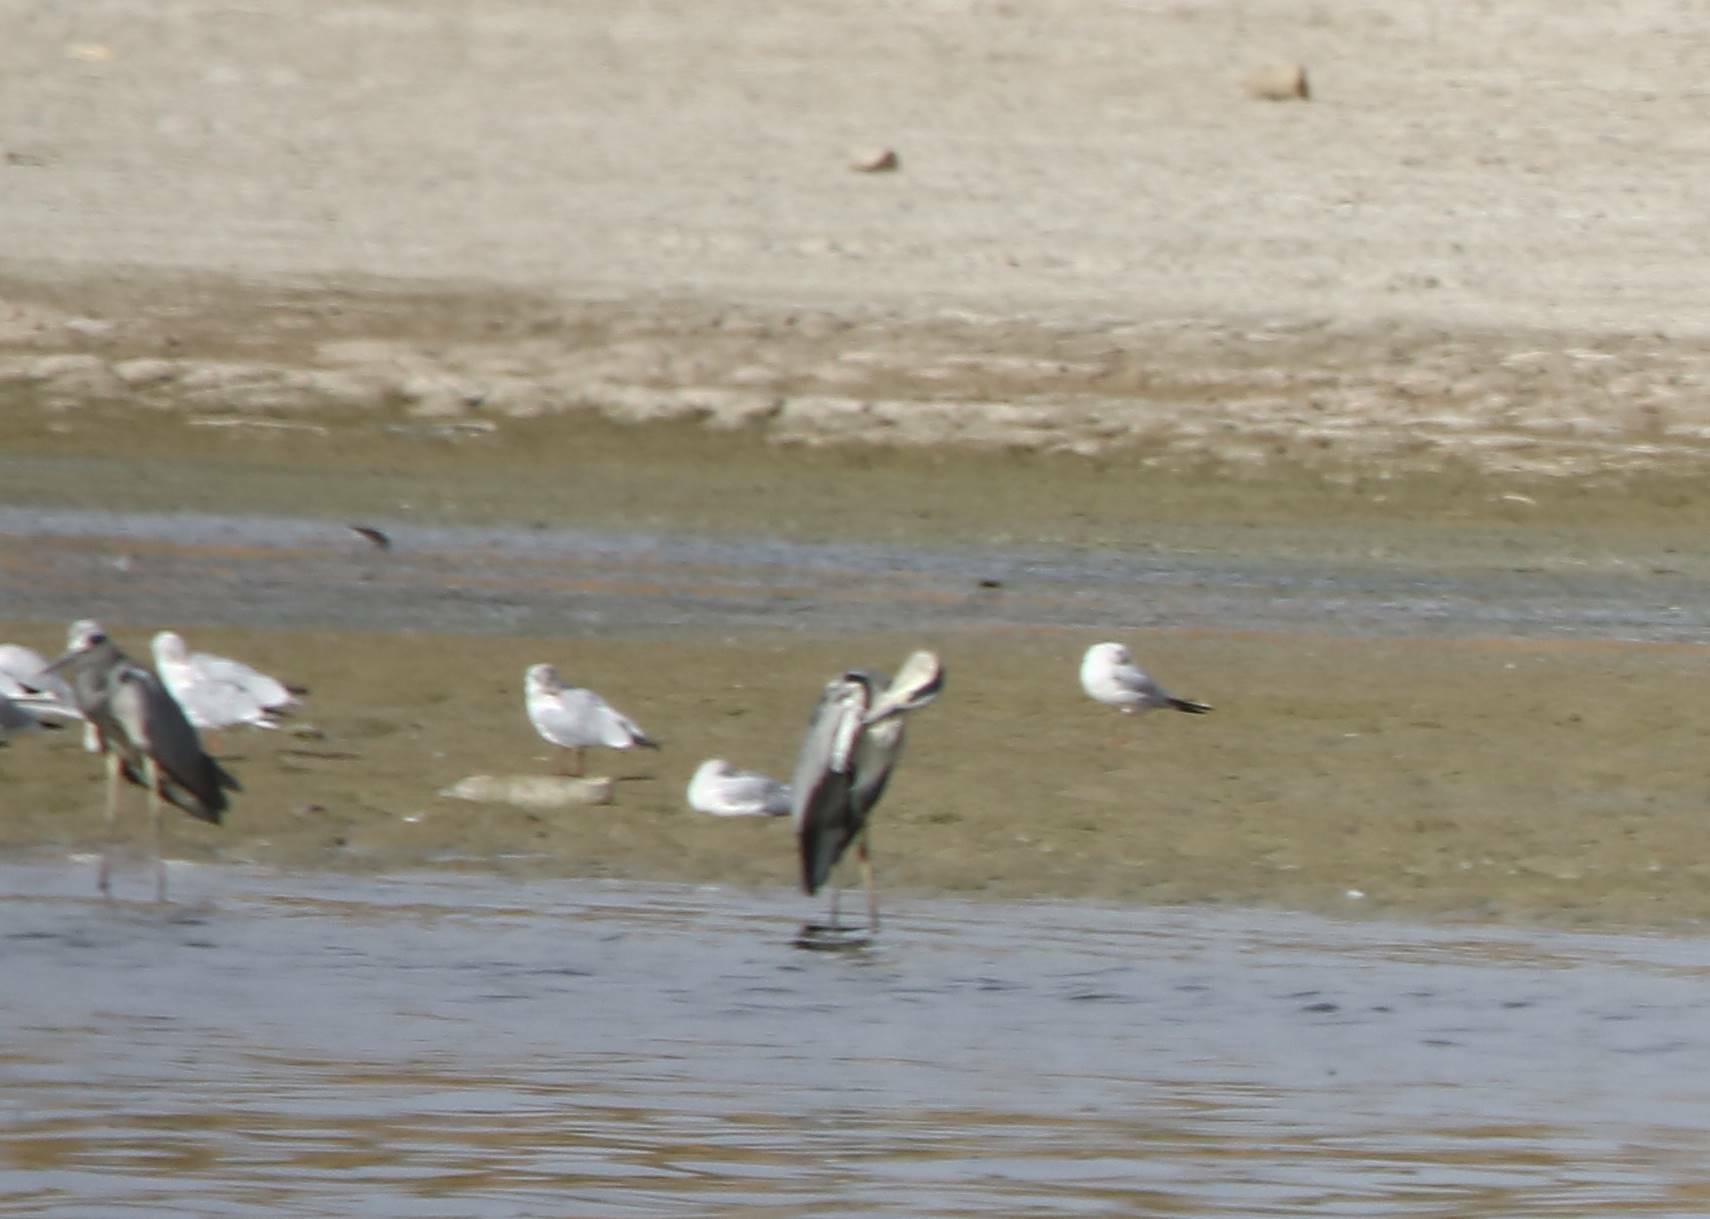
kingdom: Animalia
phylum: Chordata
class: Aves
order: Charadriiformes
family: Laridae
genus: Ichthyaetus
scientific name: Ichthyaetus audouinii
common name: Audouin's gull
